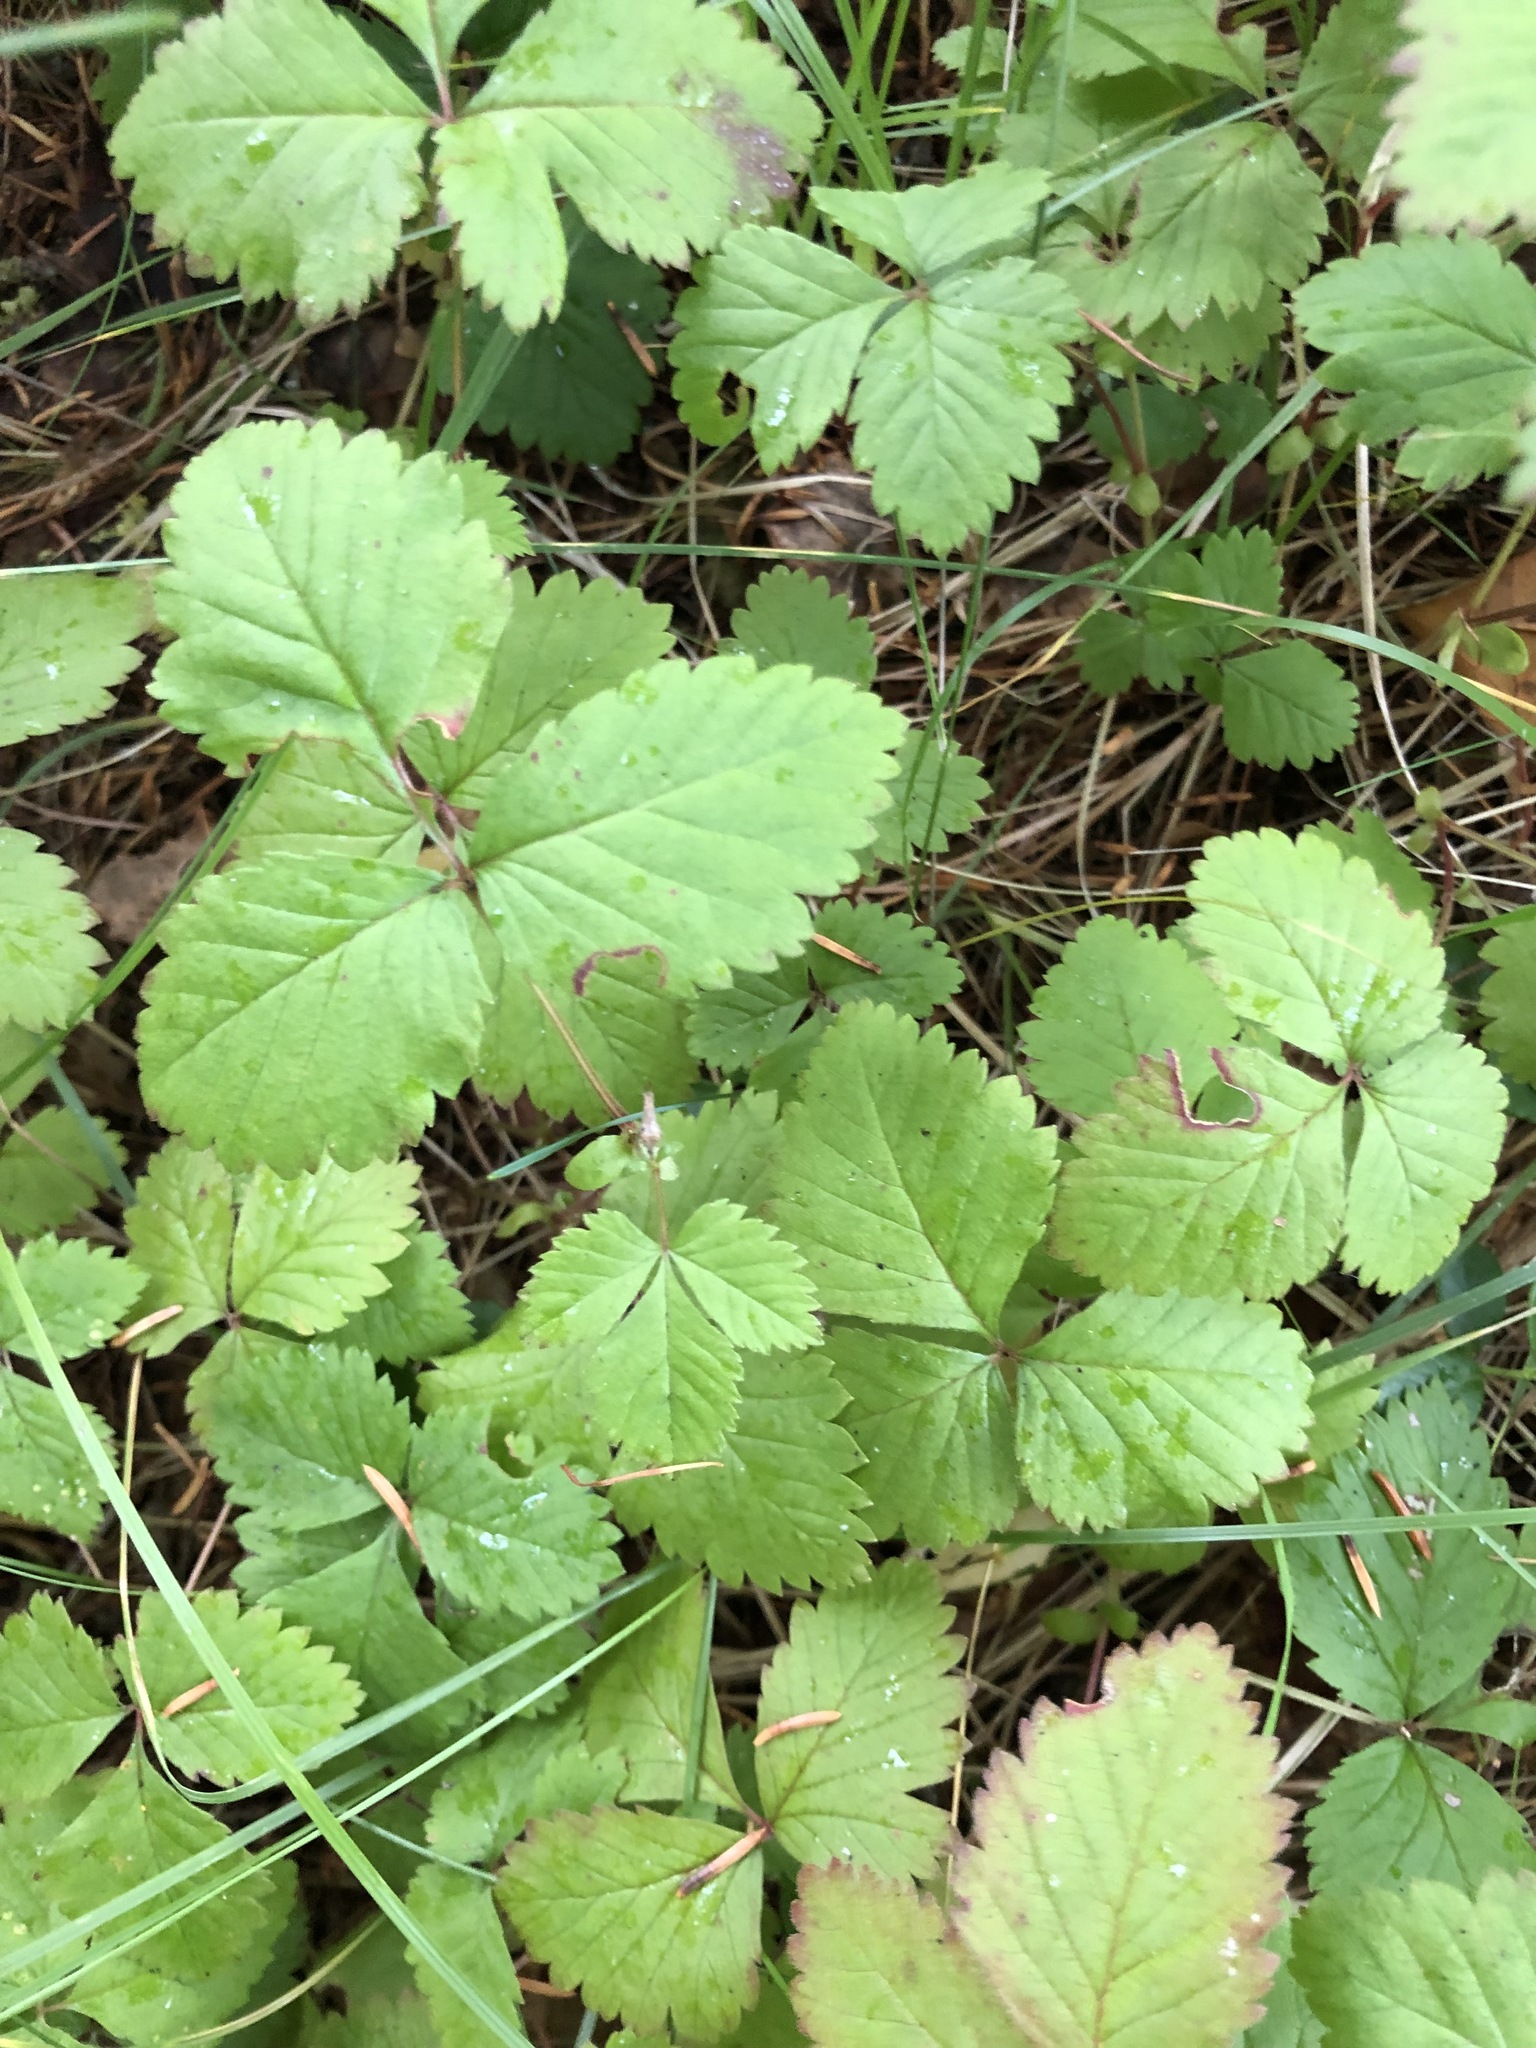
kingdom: Plantae
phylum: Tracheophyta
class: Magnoliopsida
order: Rosales
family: Rosaceae
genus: Rubus
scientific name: Rubus arcticus
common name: Arctic bramble
